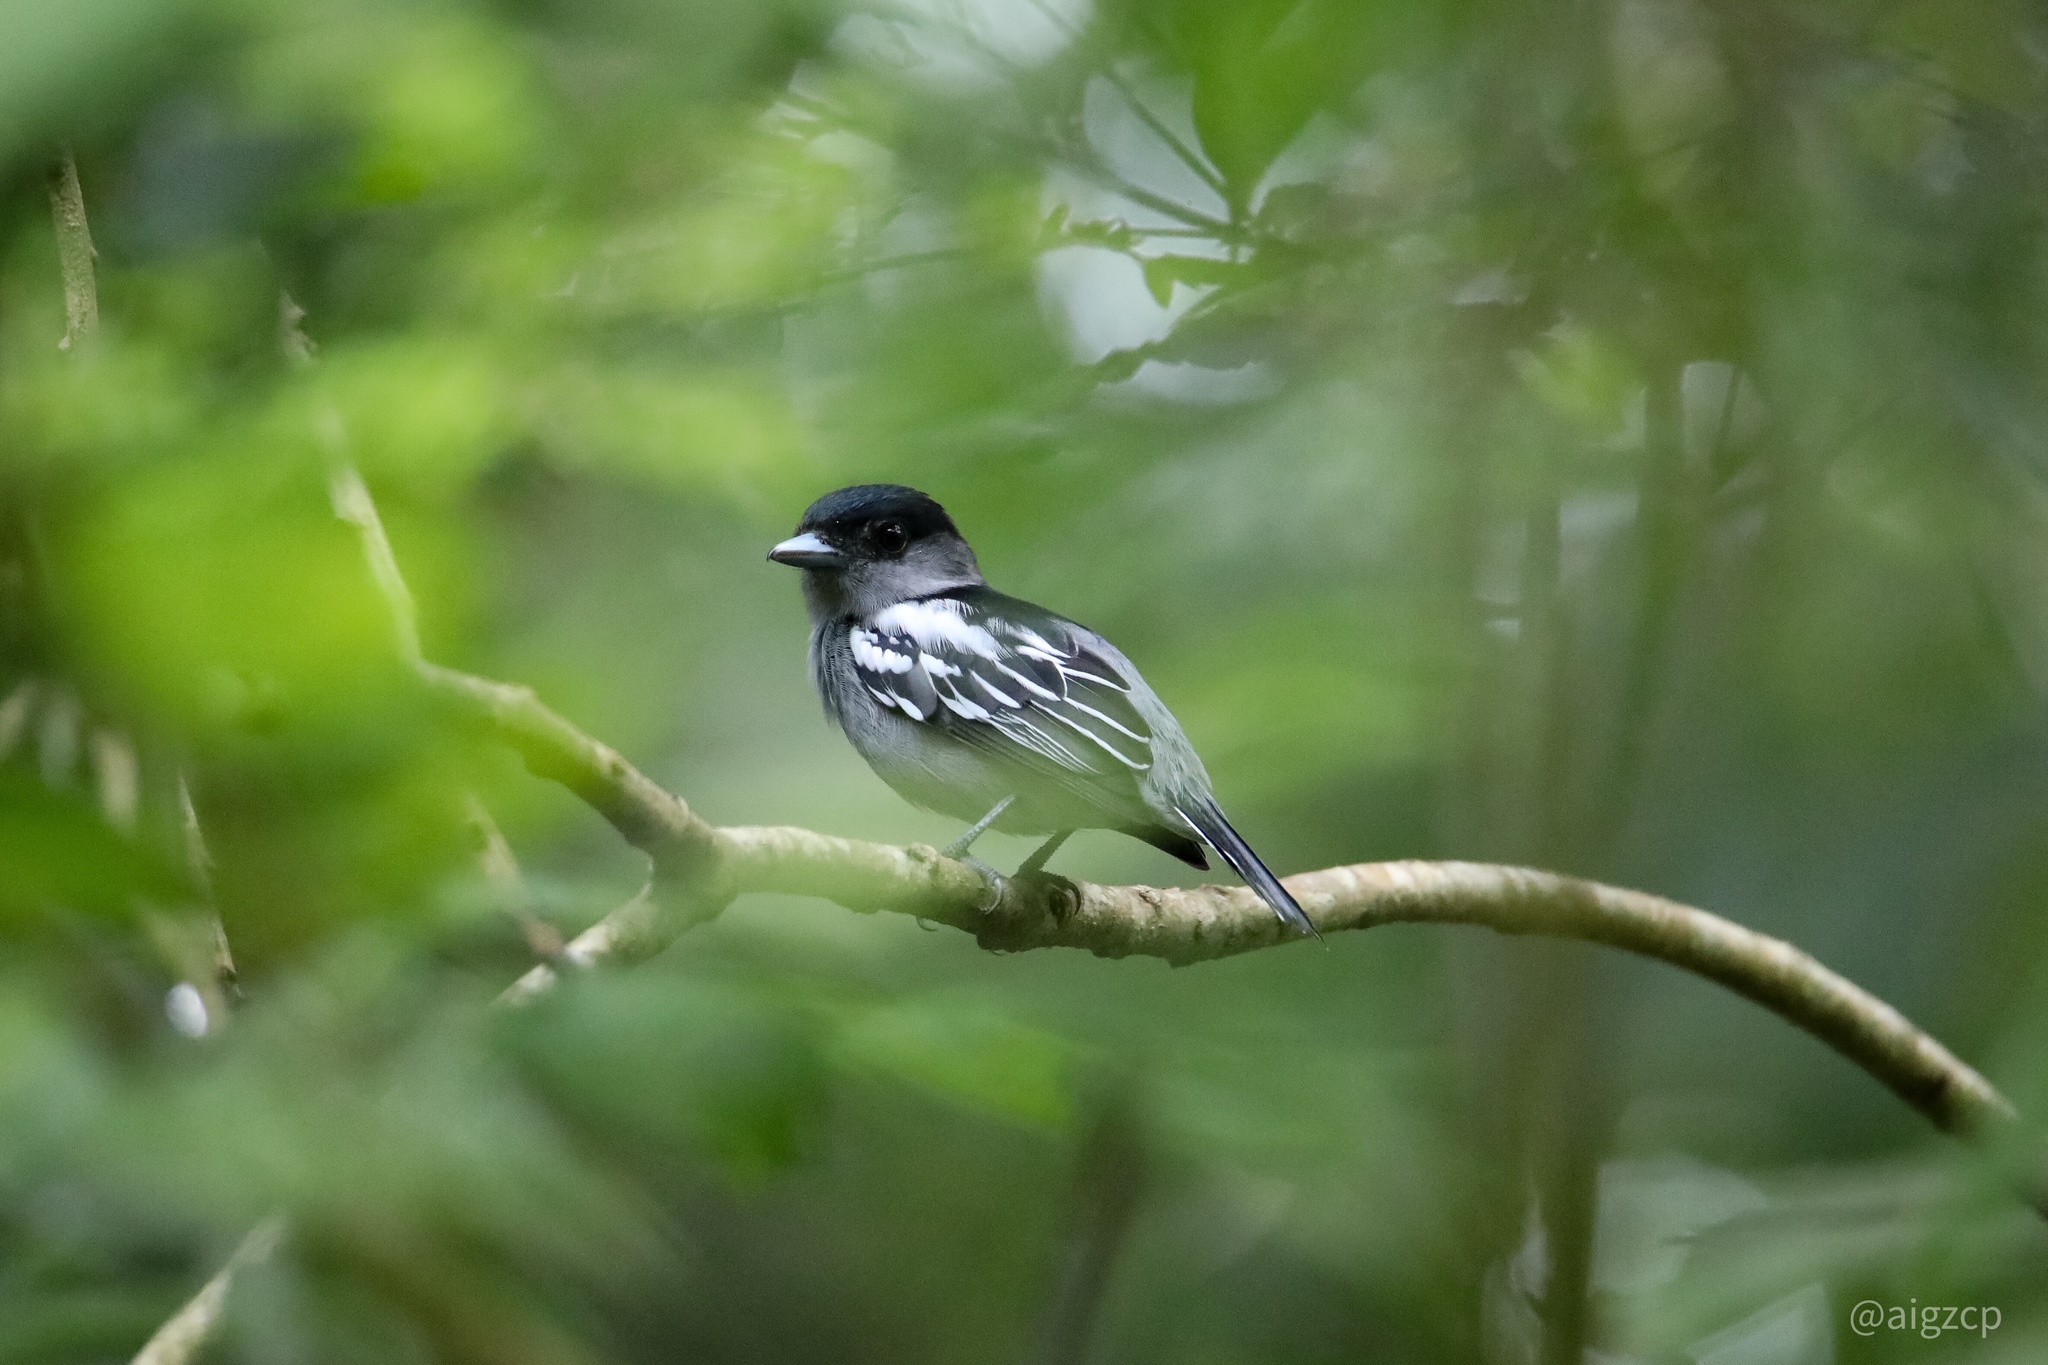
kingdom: Animalia
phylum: Chordata
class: Aves
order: Passeriformes
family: Cotingidae
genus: Pachyramphus
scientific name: Pachyramphus polychopterus
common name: White-winged becard
